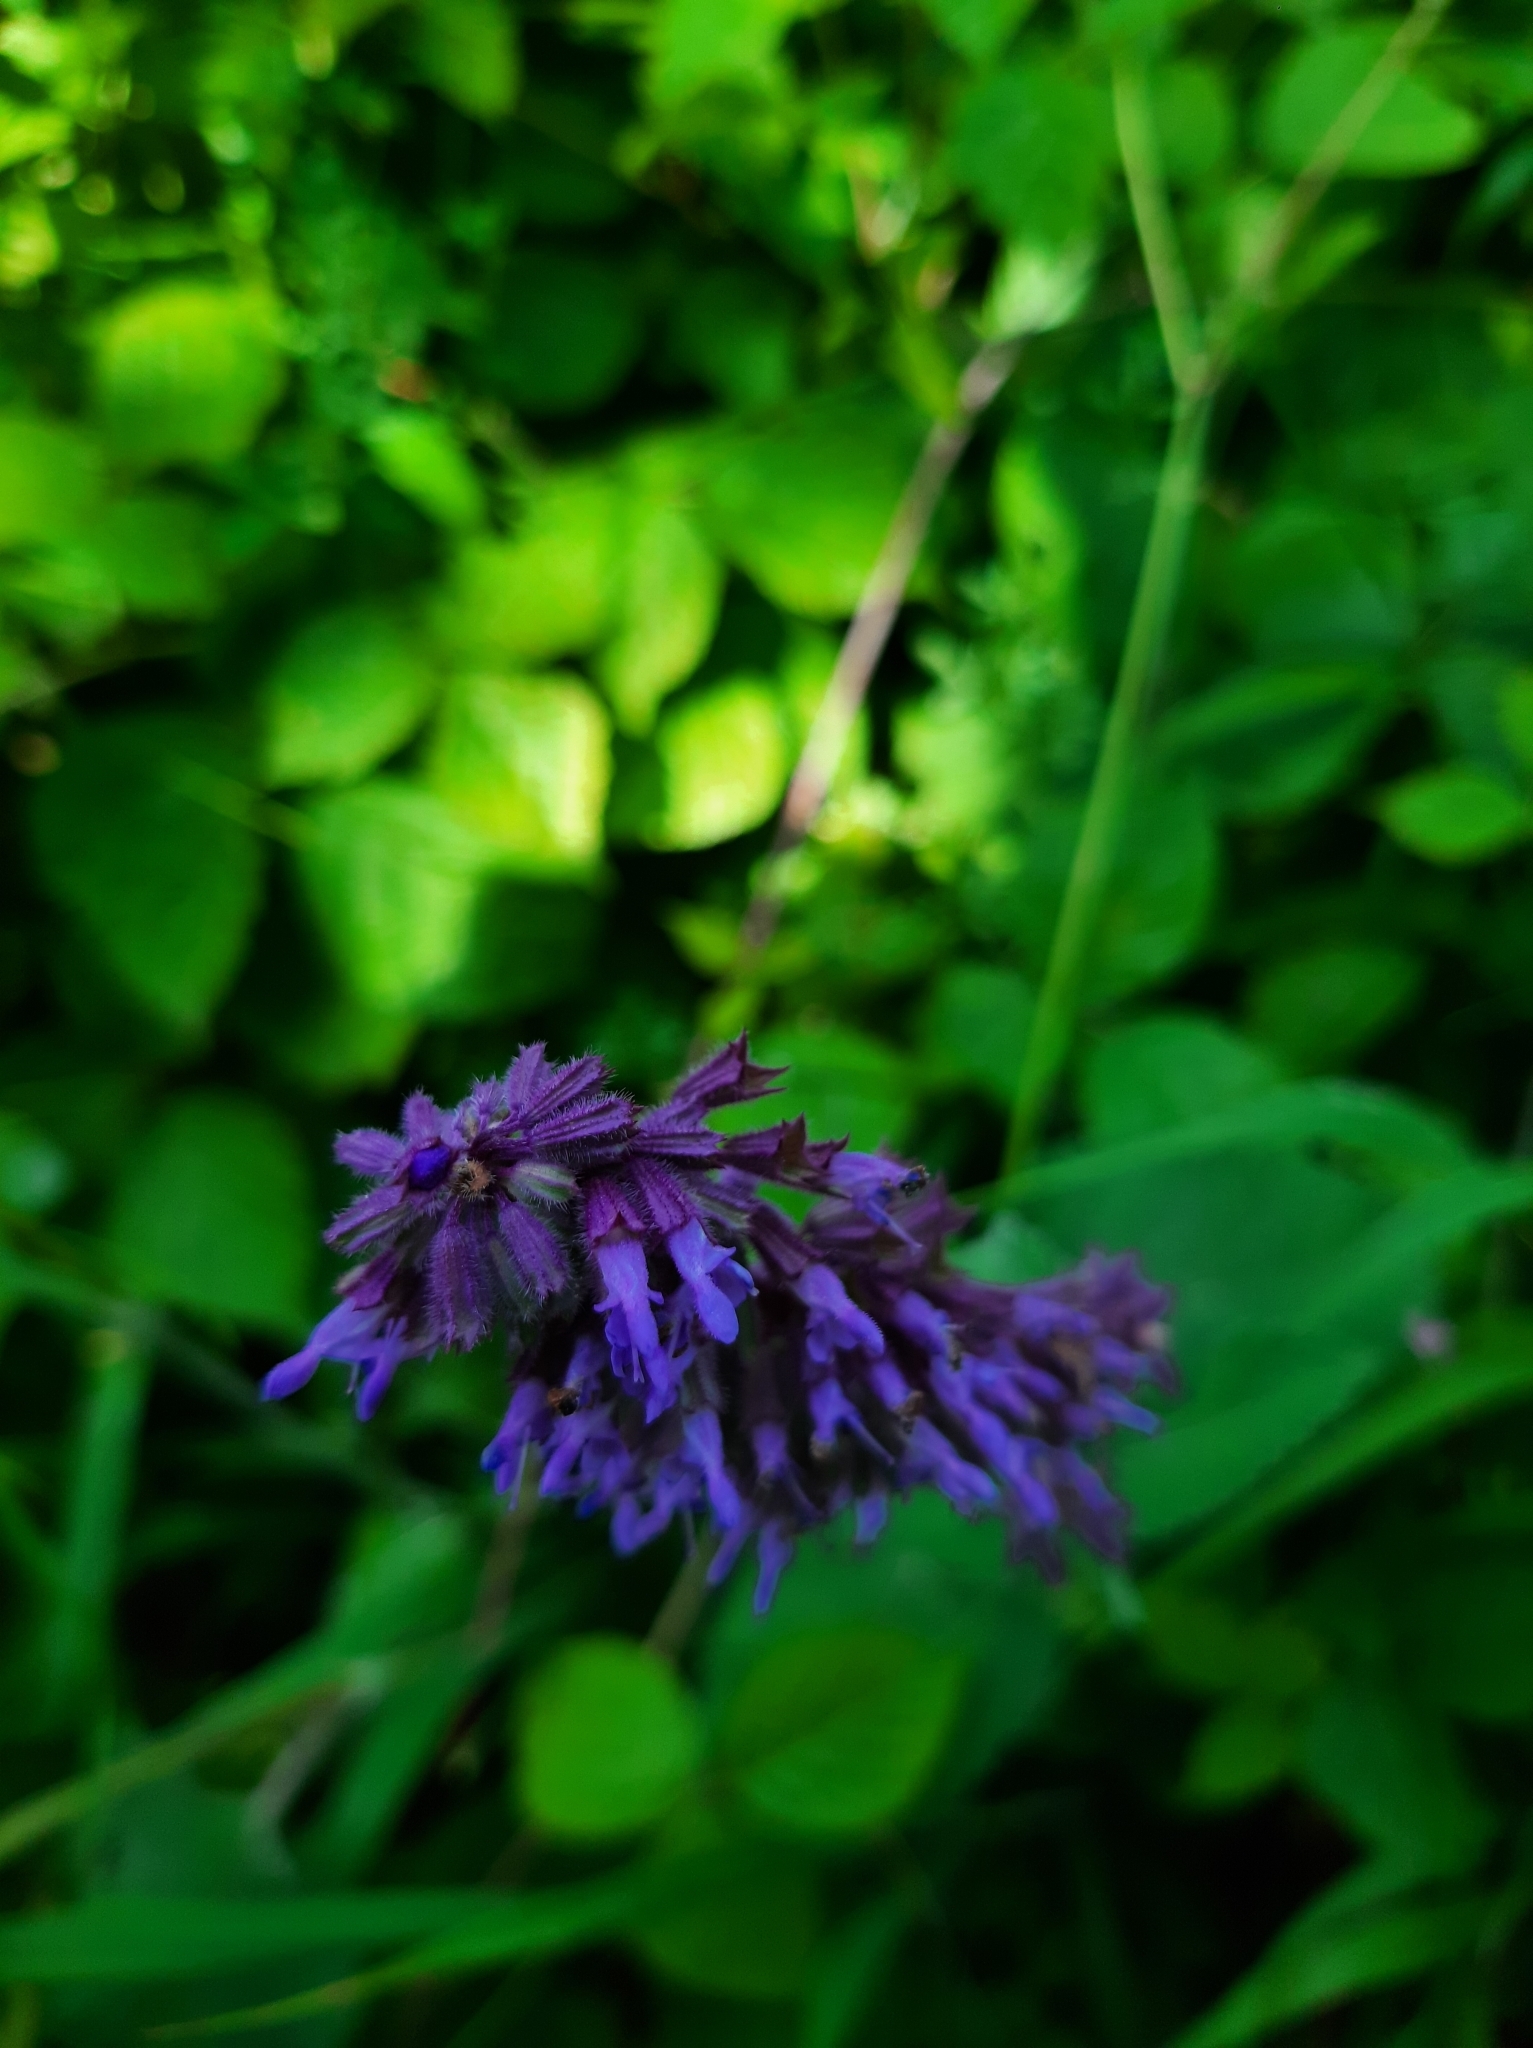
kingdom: Plantae
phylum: Tracheophyta
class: Magnoliopsida
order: Lamiales
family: Lamiaceae
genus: Salvia
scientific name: Salvia verticillata
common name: Whorled clary
